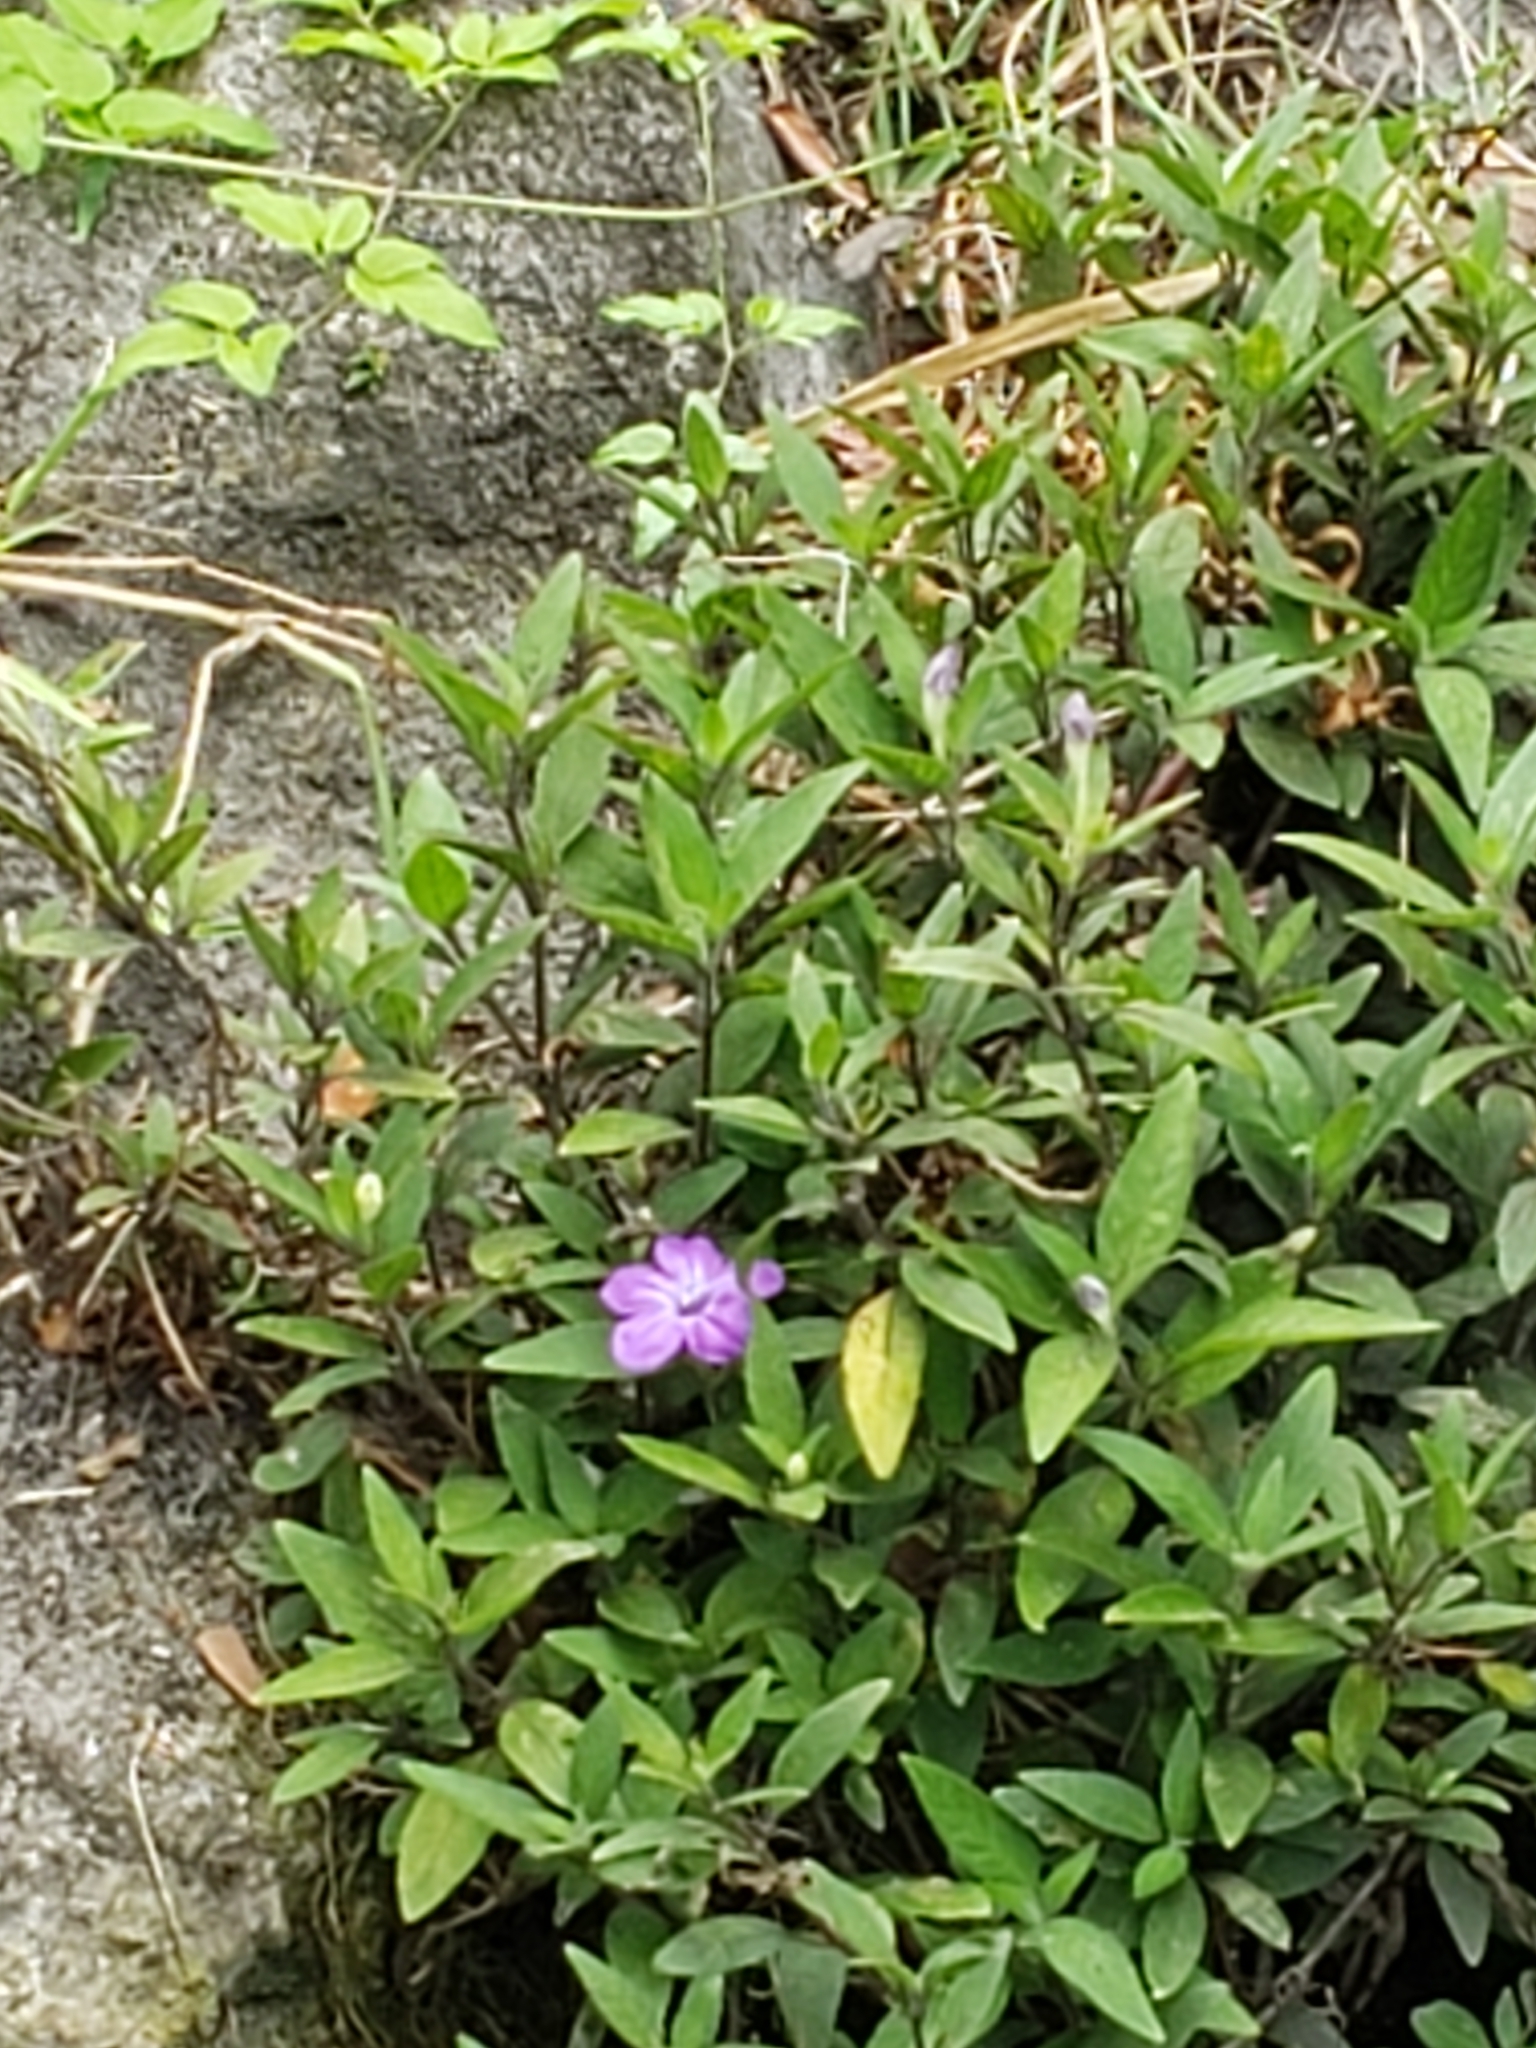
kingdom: Plantae
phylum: Tracheophyta
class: Magnoliopsida
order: Lamiales
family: Acanthaceae
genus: Ruellia
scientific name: Ruellia simplex
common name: Softseed wild petunia
